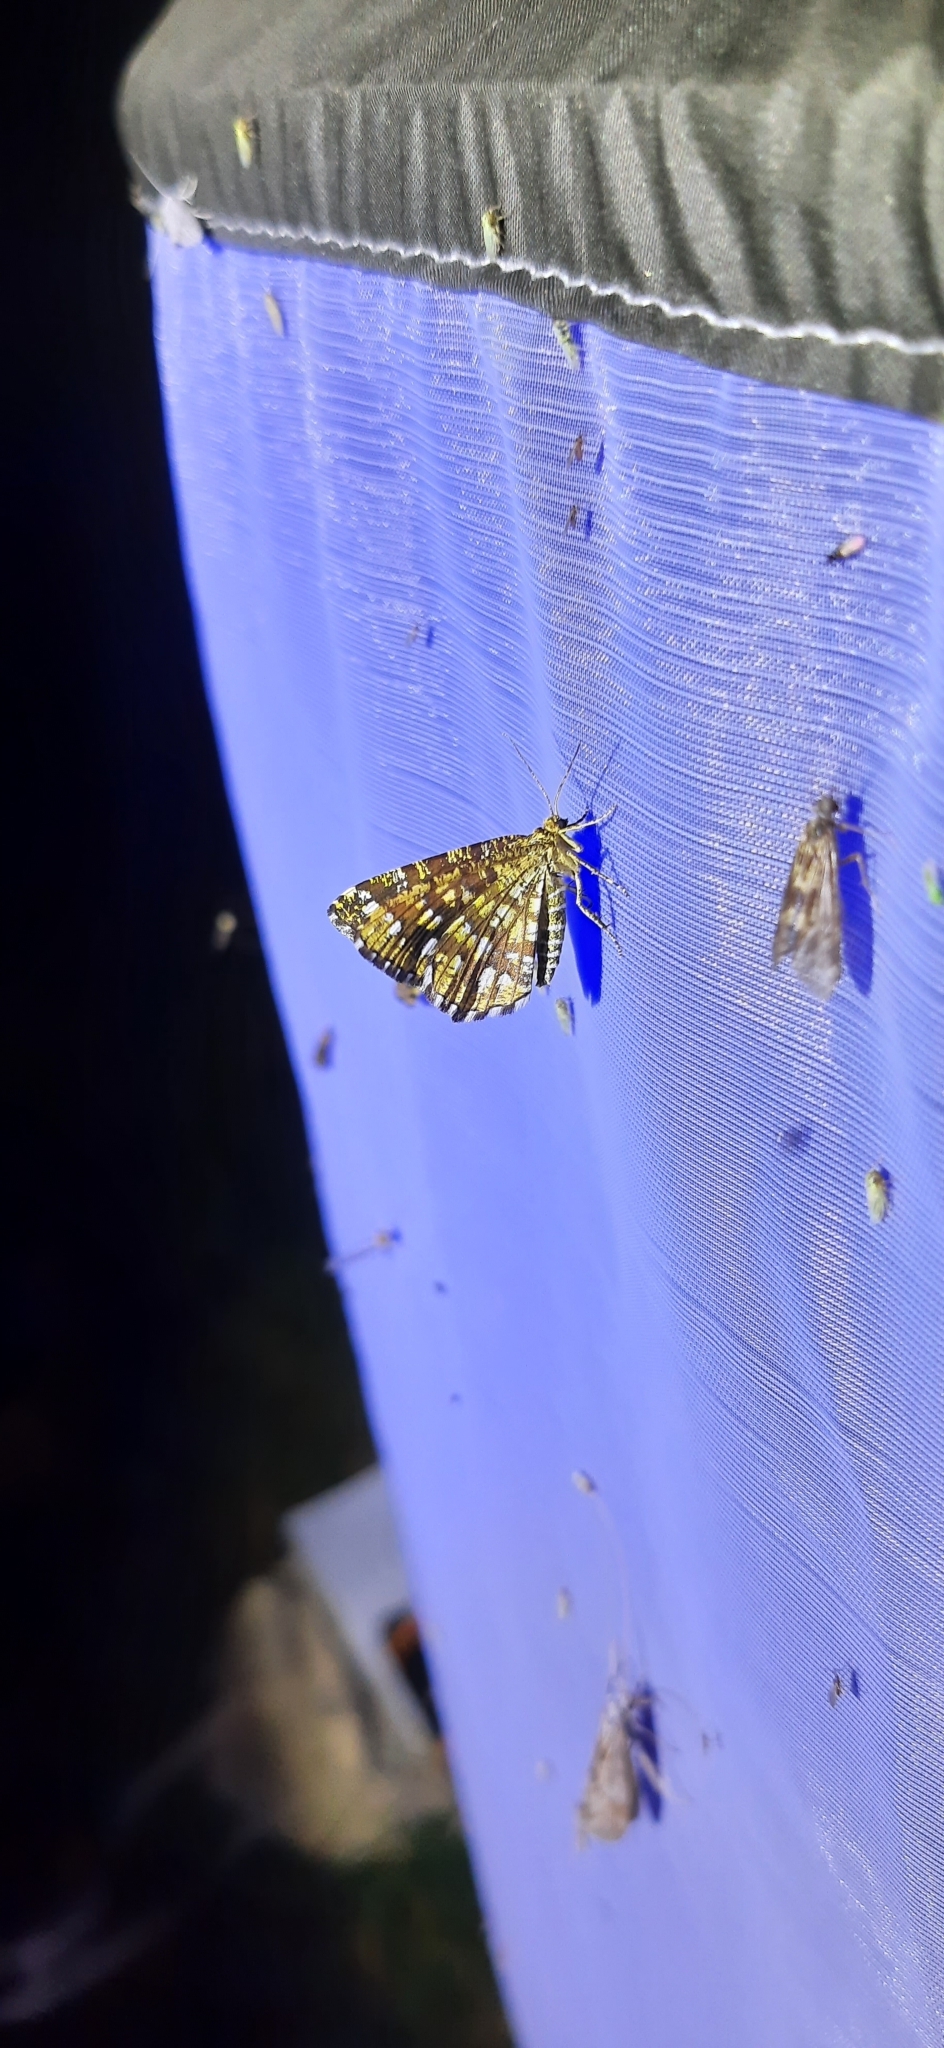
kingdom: Animalia
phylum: Arthropoda
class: Insecta
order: Lepidoptera
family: Geometridae
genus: Chiasmia
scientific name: Chiasmia clathrata
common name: Latticed heath
